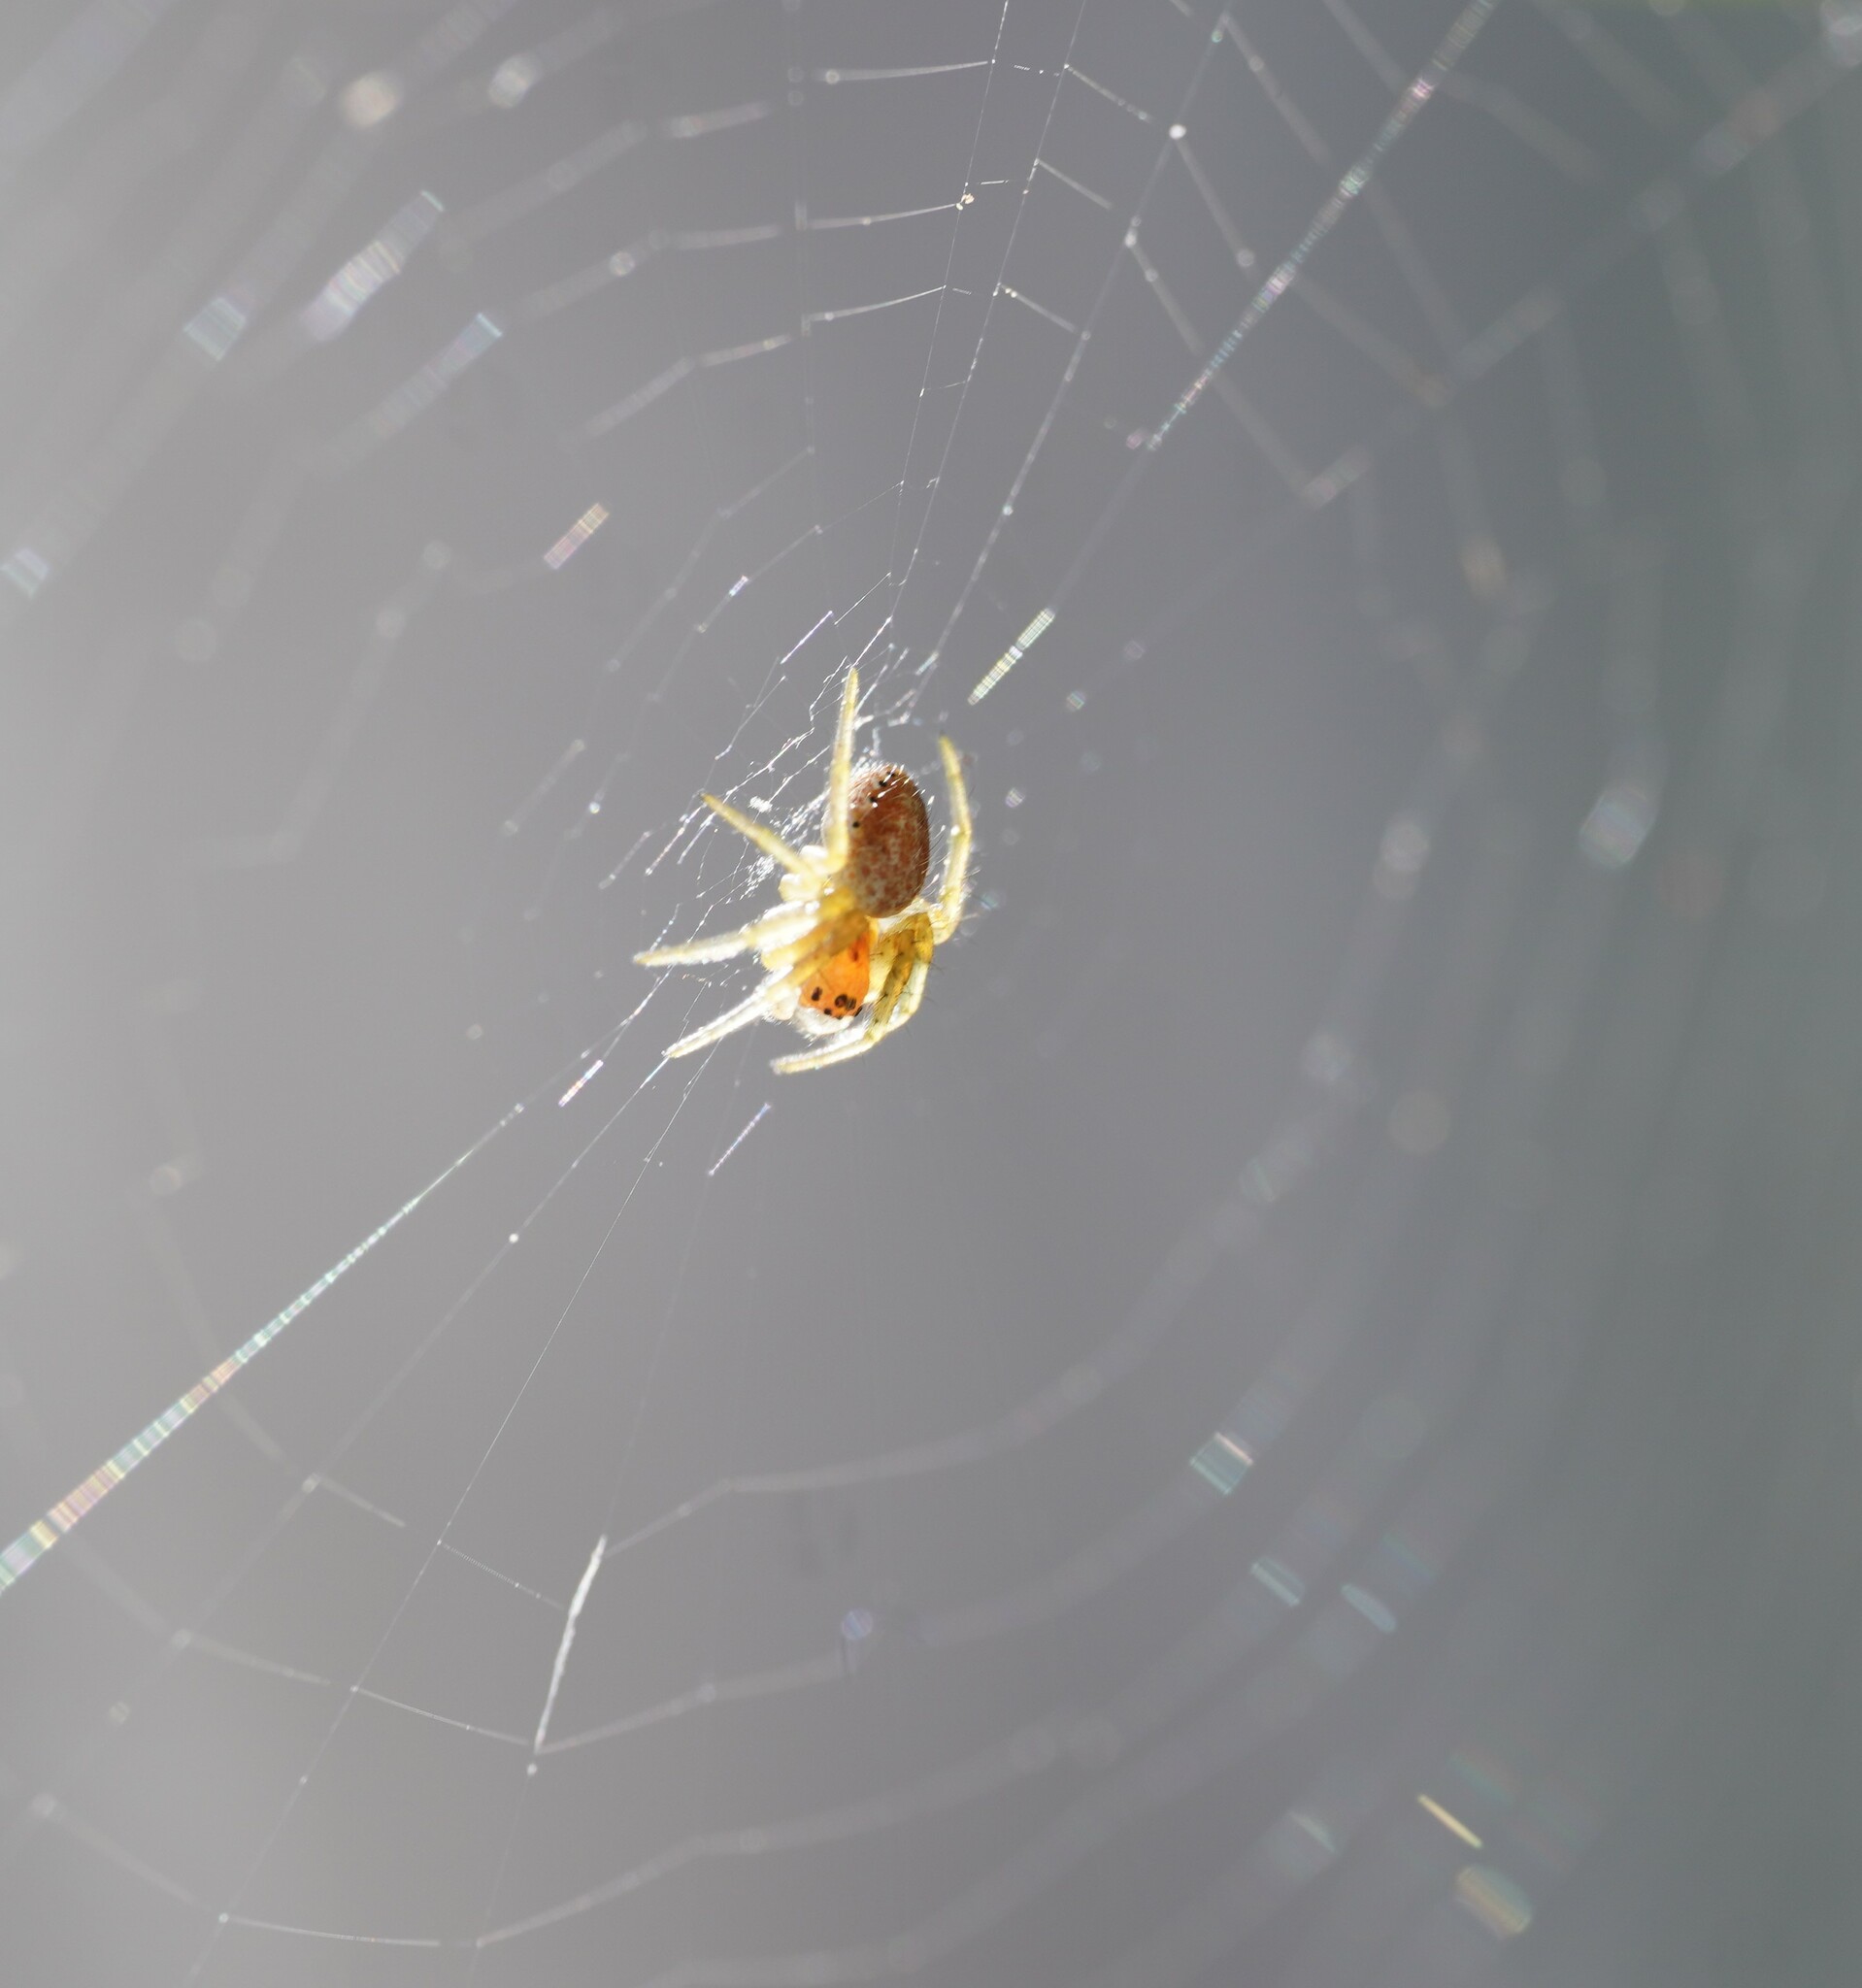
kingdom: Animalia
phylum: Arthropoda
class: Arachnida
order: Araneae
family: Araneidae
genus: Araniella
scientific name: Araniella
